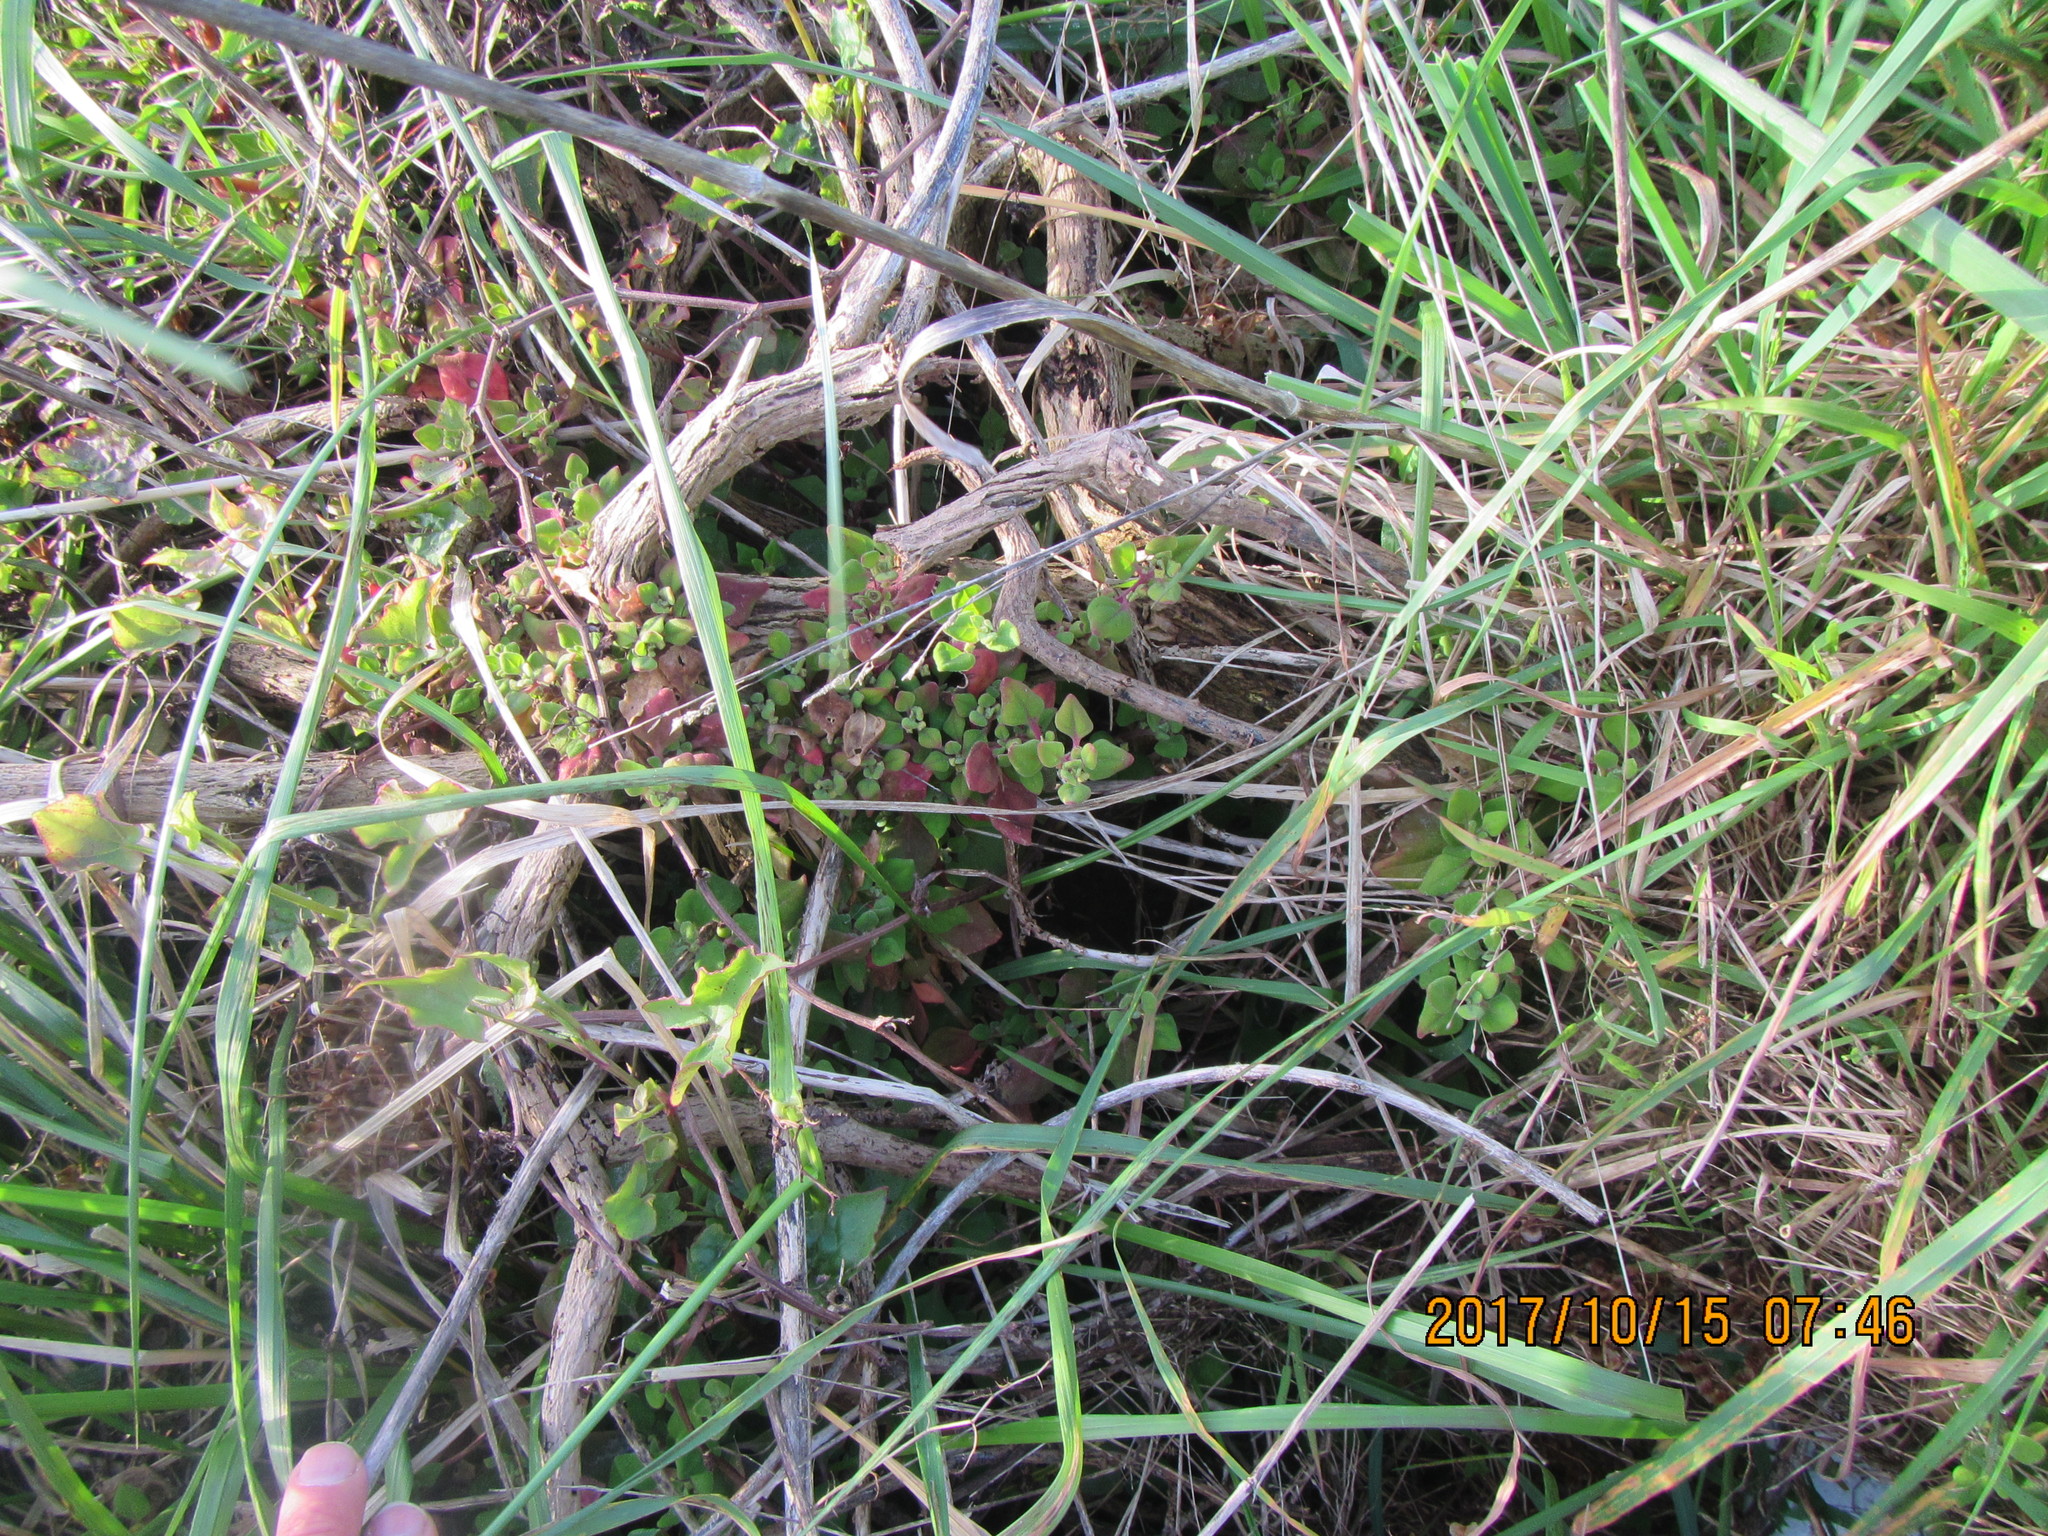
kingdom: Plantae
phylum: Tracheophyta
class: Magnoliopsida
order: Caryophyllales
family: Aizoaceae
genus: Tetragonia
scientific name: Tetragonia implexicoma
